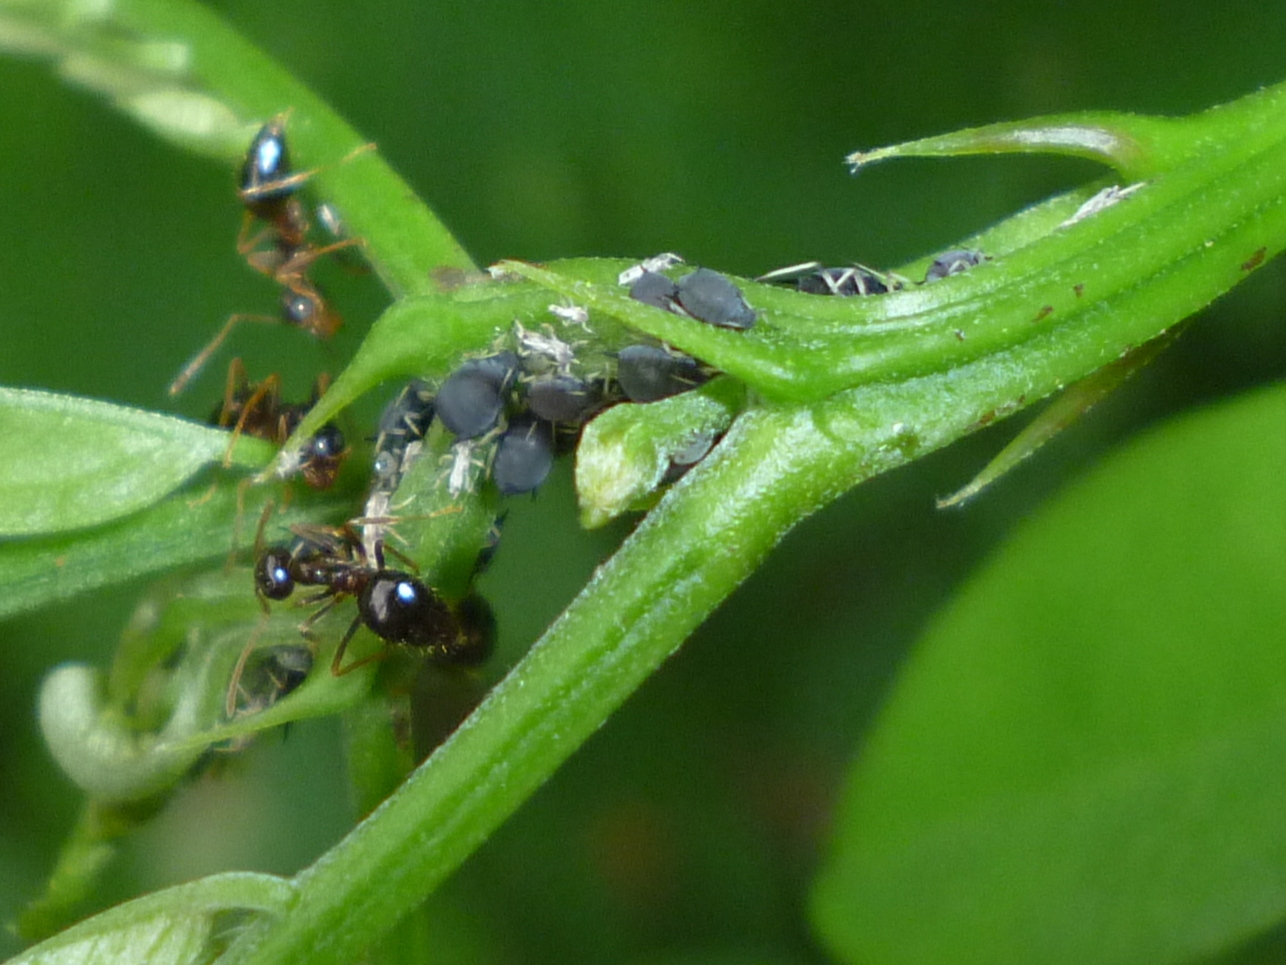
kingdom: Animalia
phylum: Arthropoda
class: Insecta
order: Hymenoptera
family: Formicidae
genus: Prenolepis
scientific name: Prenolepis imparis
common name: Small honey ant
